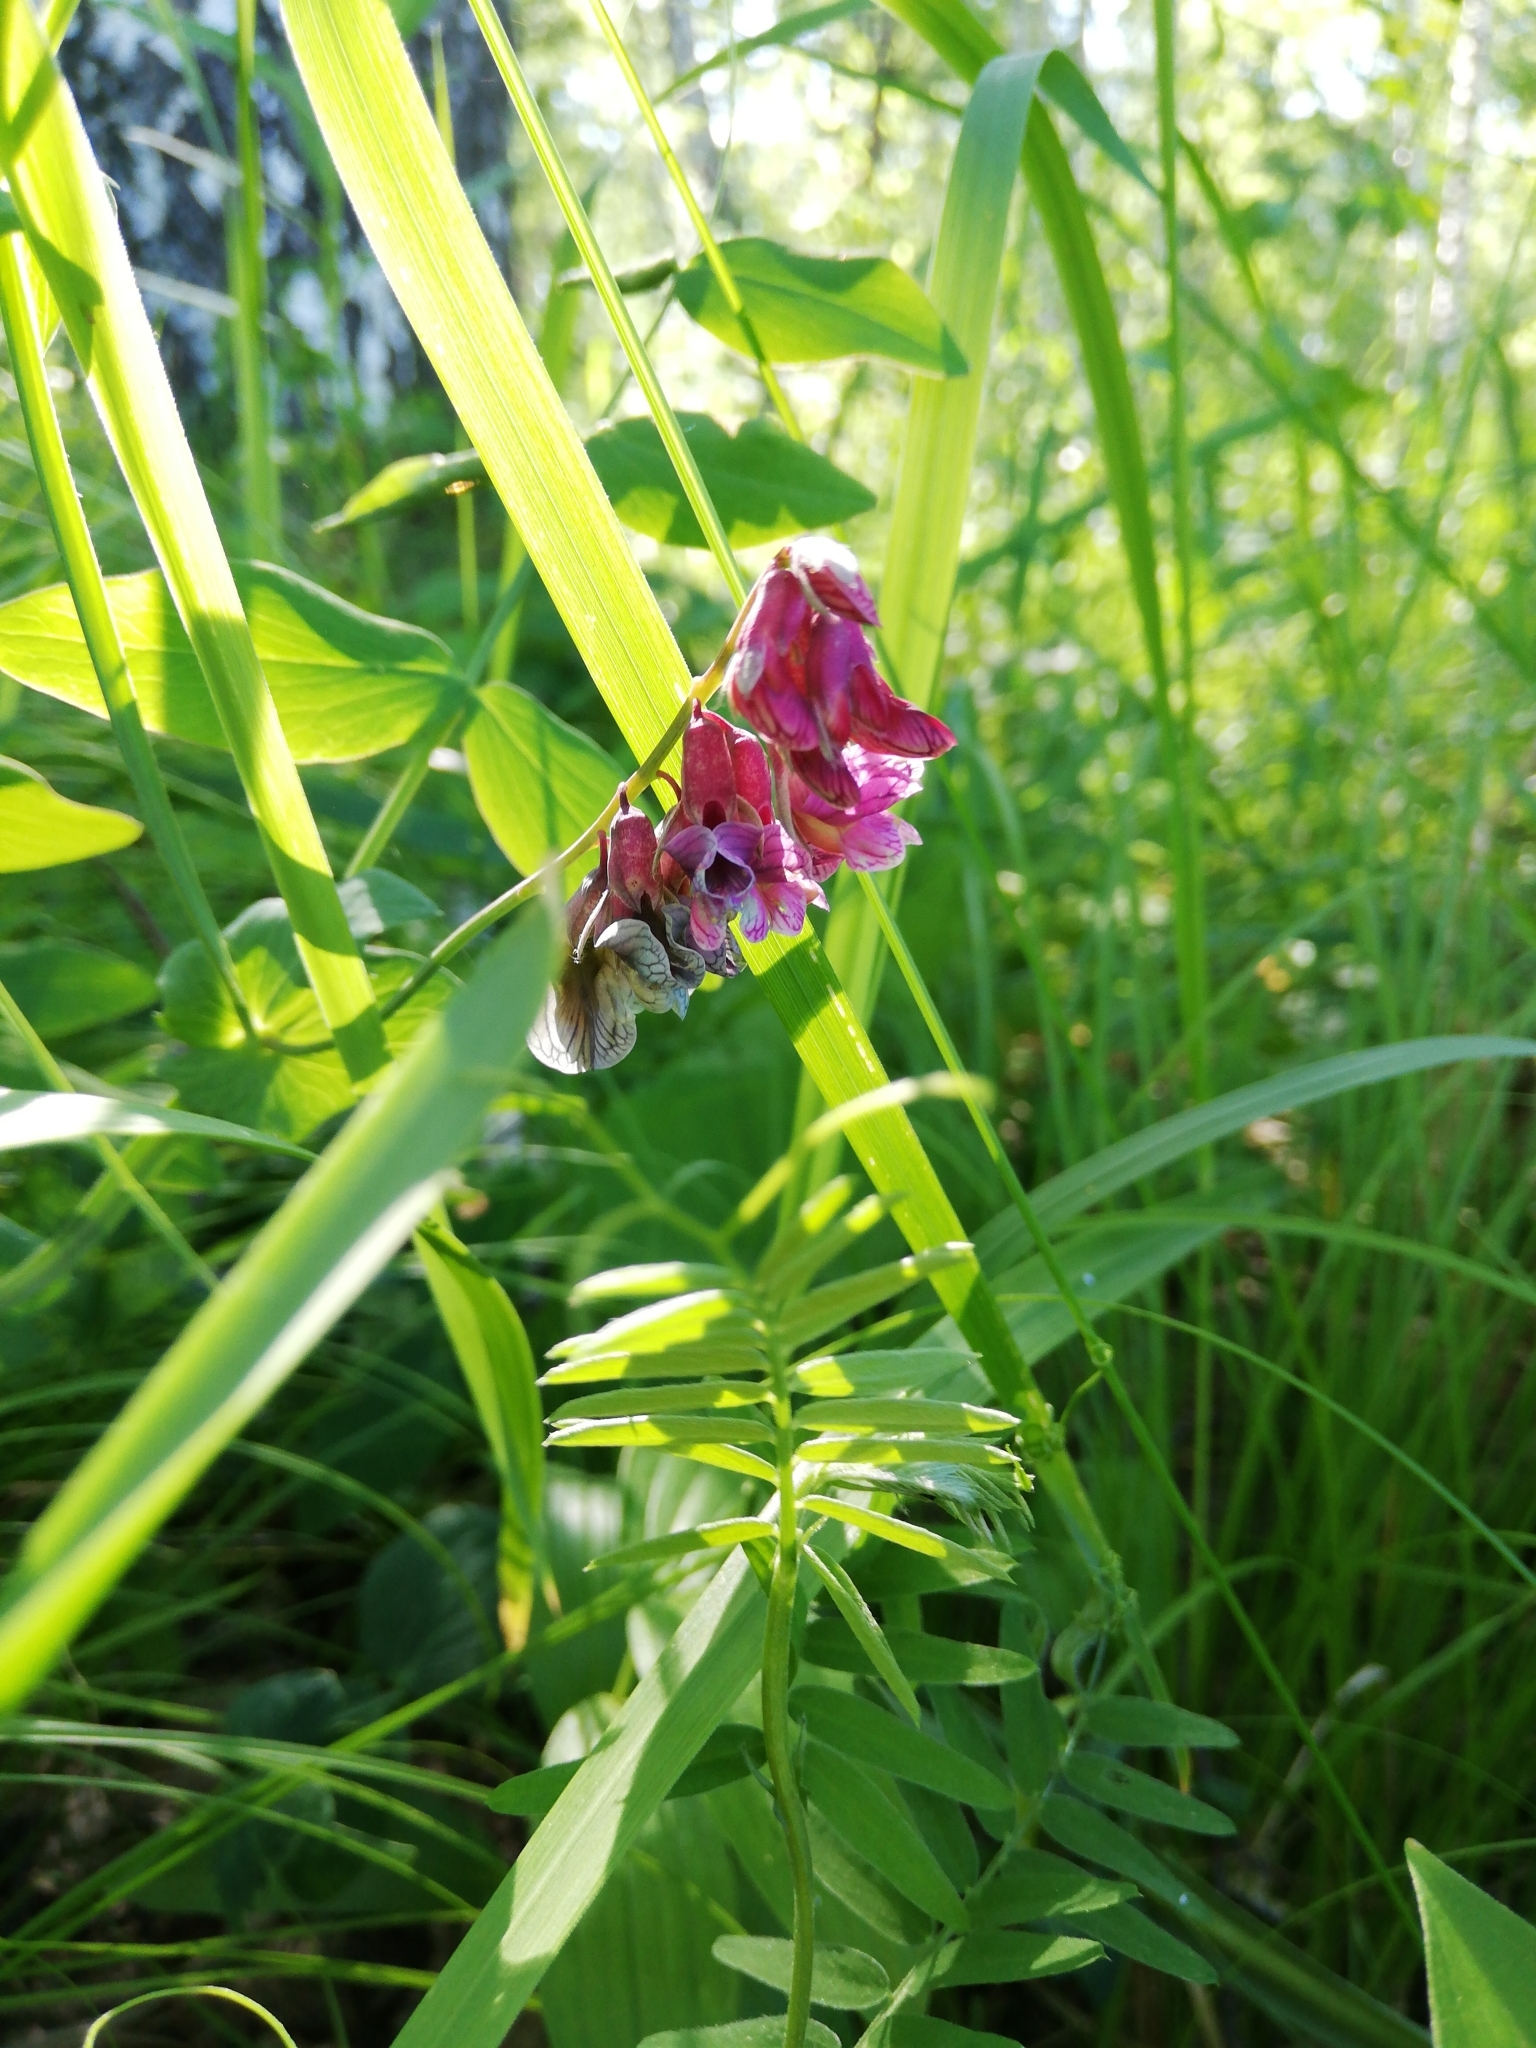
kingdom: Plantae
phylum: Tracheophyta
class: Magnoliopsida
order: Fabales
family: Fabaceae
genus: Lathyrus
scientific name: Lathyrus pisiformis
